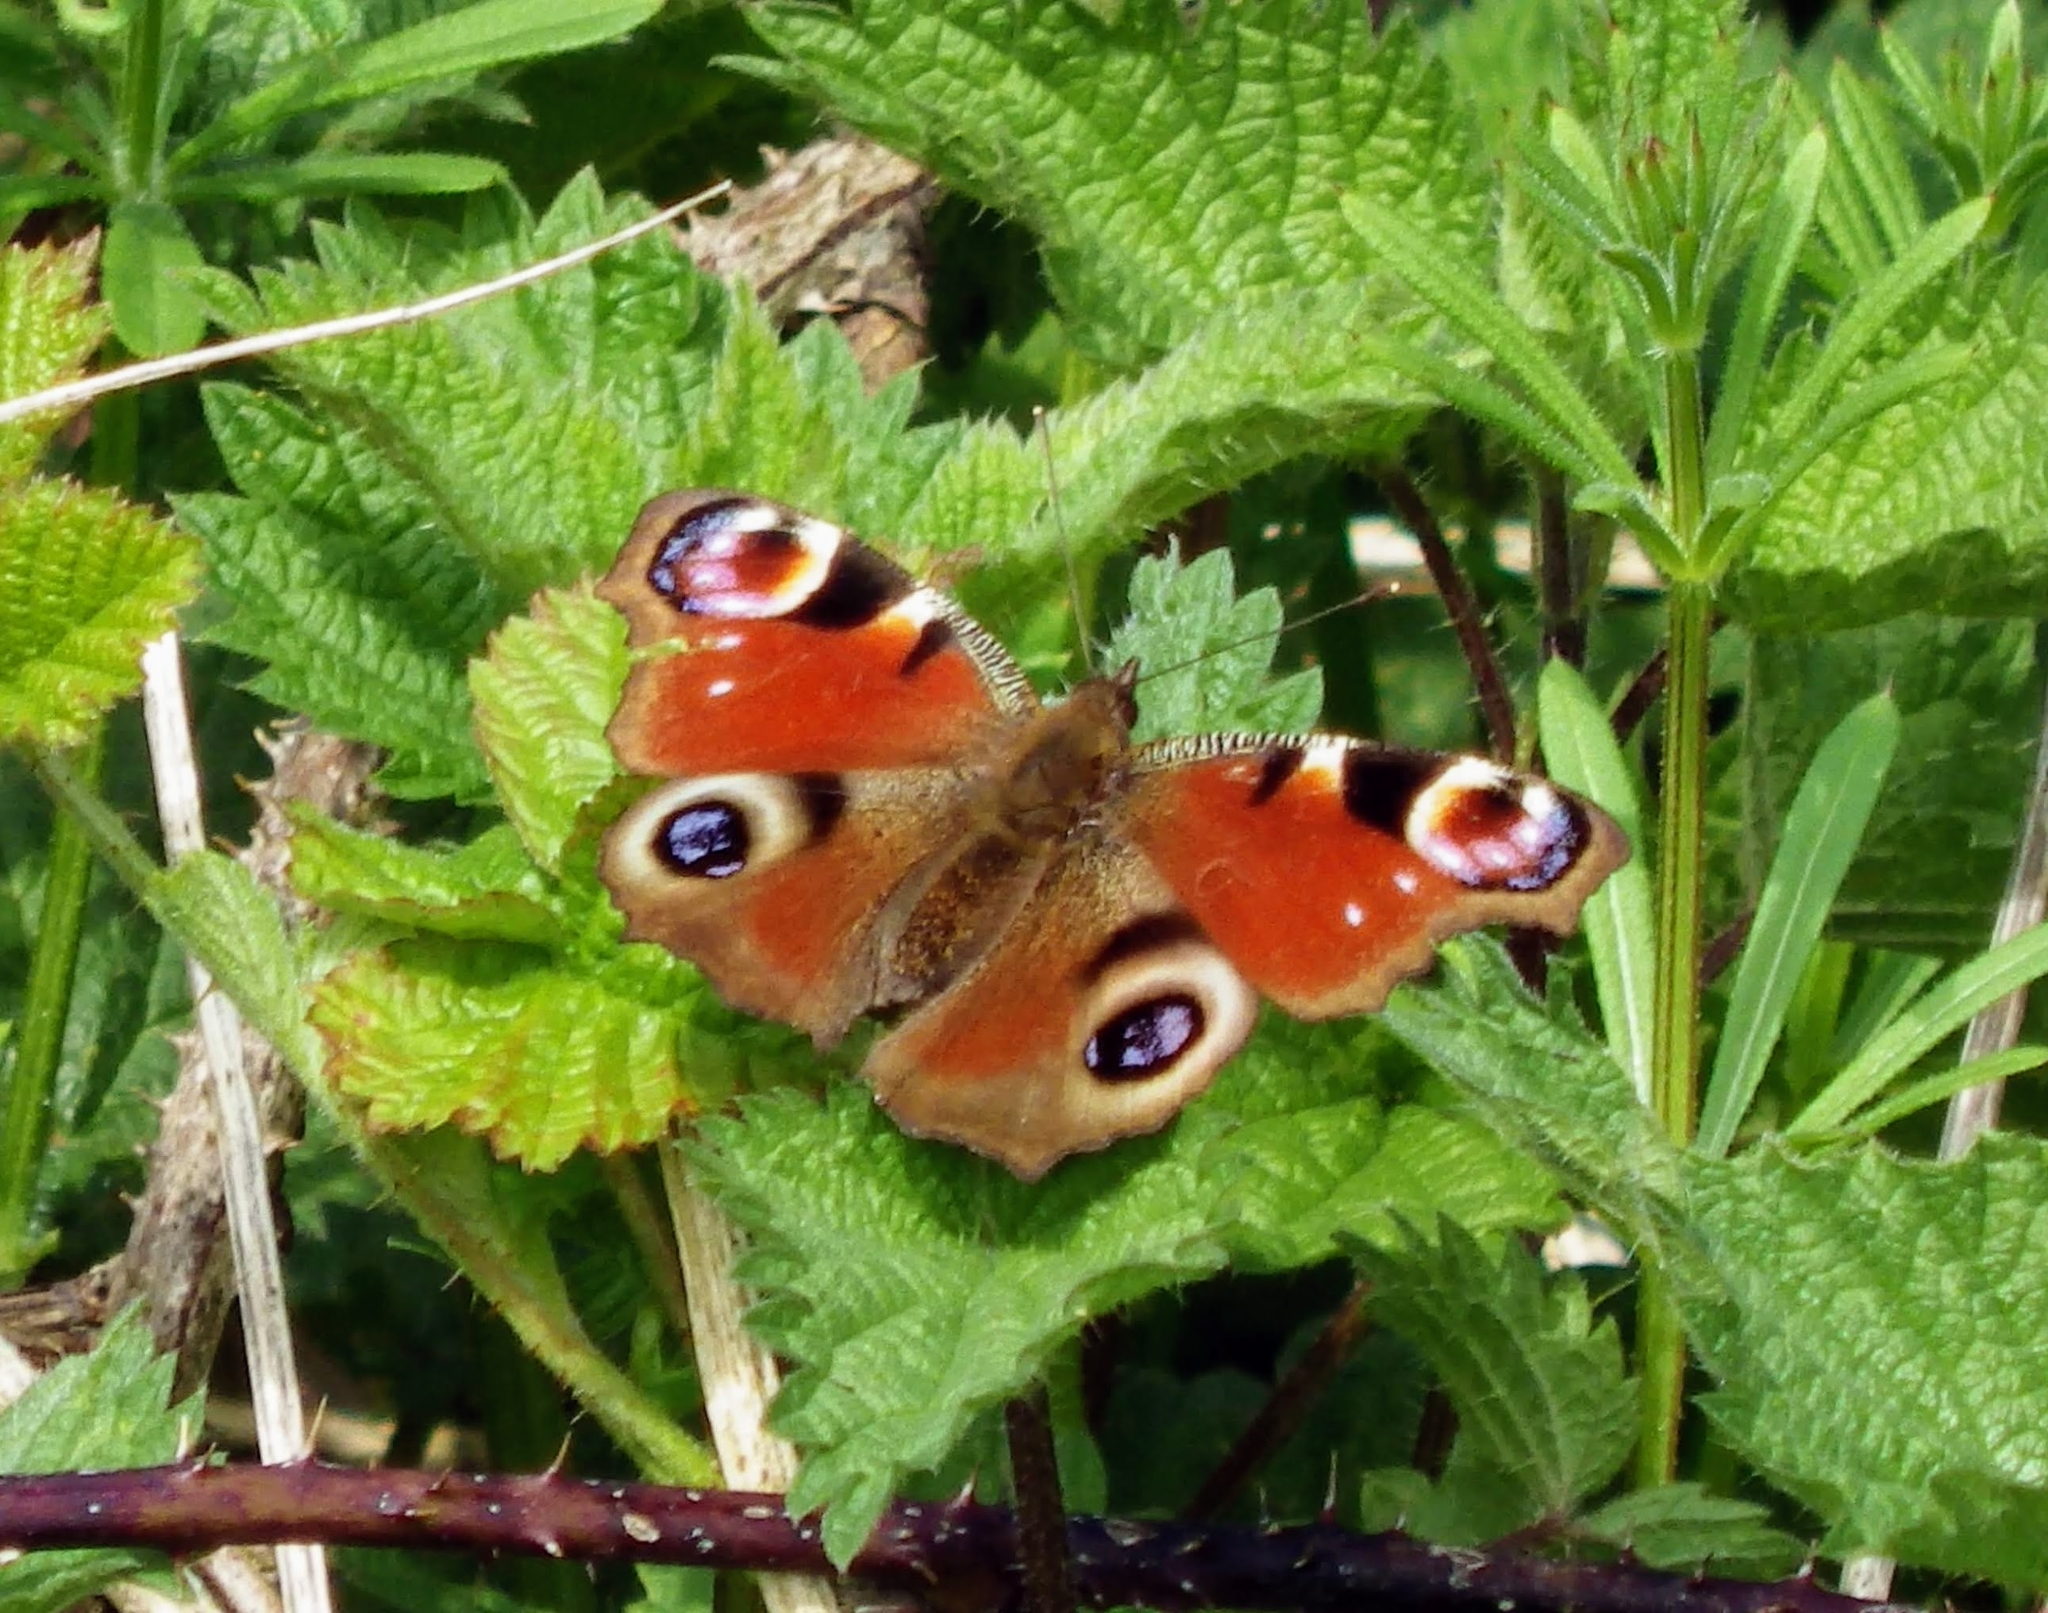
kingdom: Animalia
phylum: Arthropoda
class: Insecta
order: Lepidoptera
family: Nymphalidae
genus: Aglais
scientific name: Aglais io
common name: Peacock
